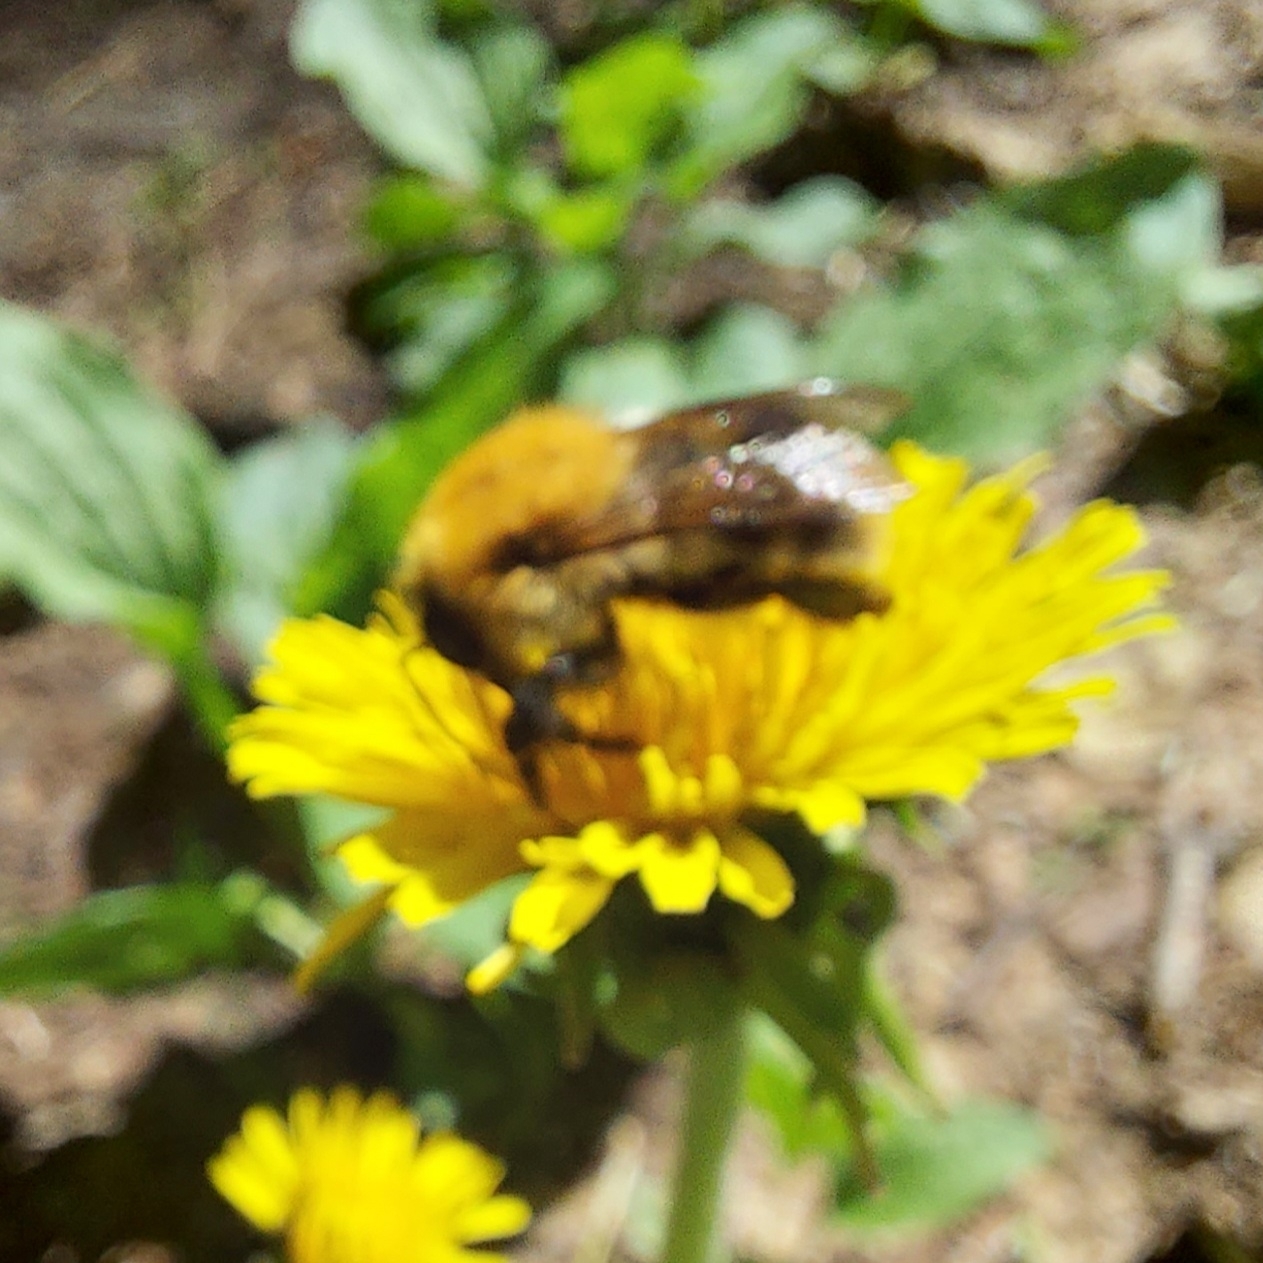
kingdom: Animalia
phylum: Arthropoda
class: Insecta
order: Hymenoptera
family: Apidae
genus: Bombus
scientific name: Bombus
